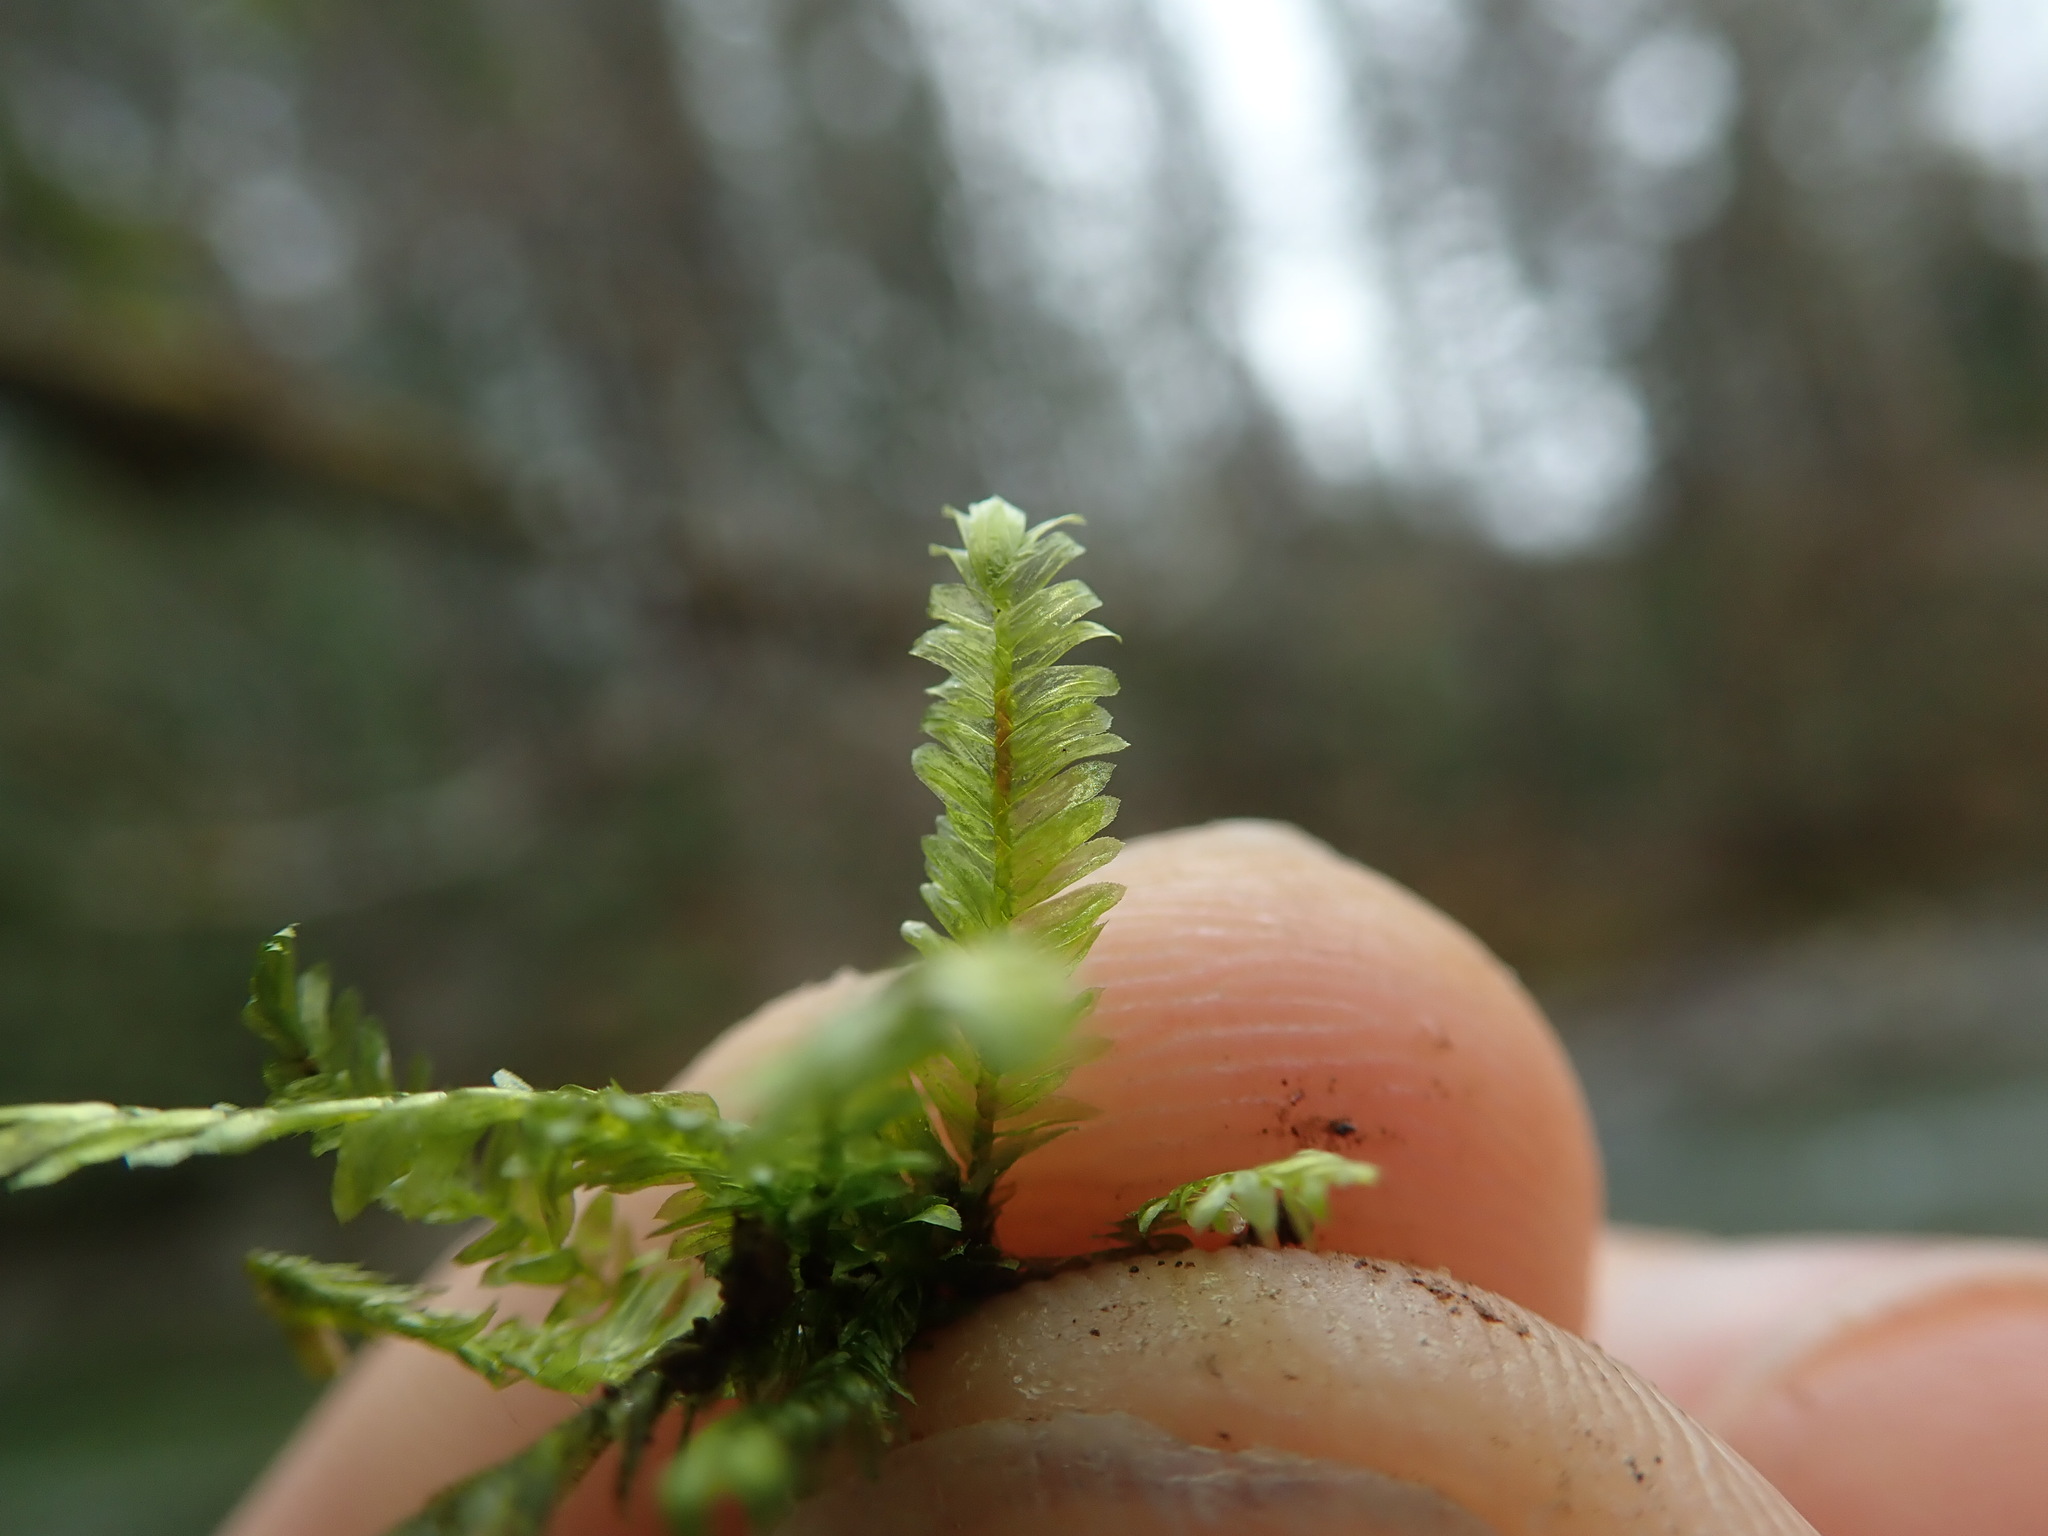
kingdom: Plantae
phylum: Bryophyta
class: Bryopsida
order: Hypnales
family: Neckeraceae
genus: Dannorrisia
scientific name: Dannorrisia bigelovii
